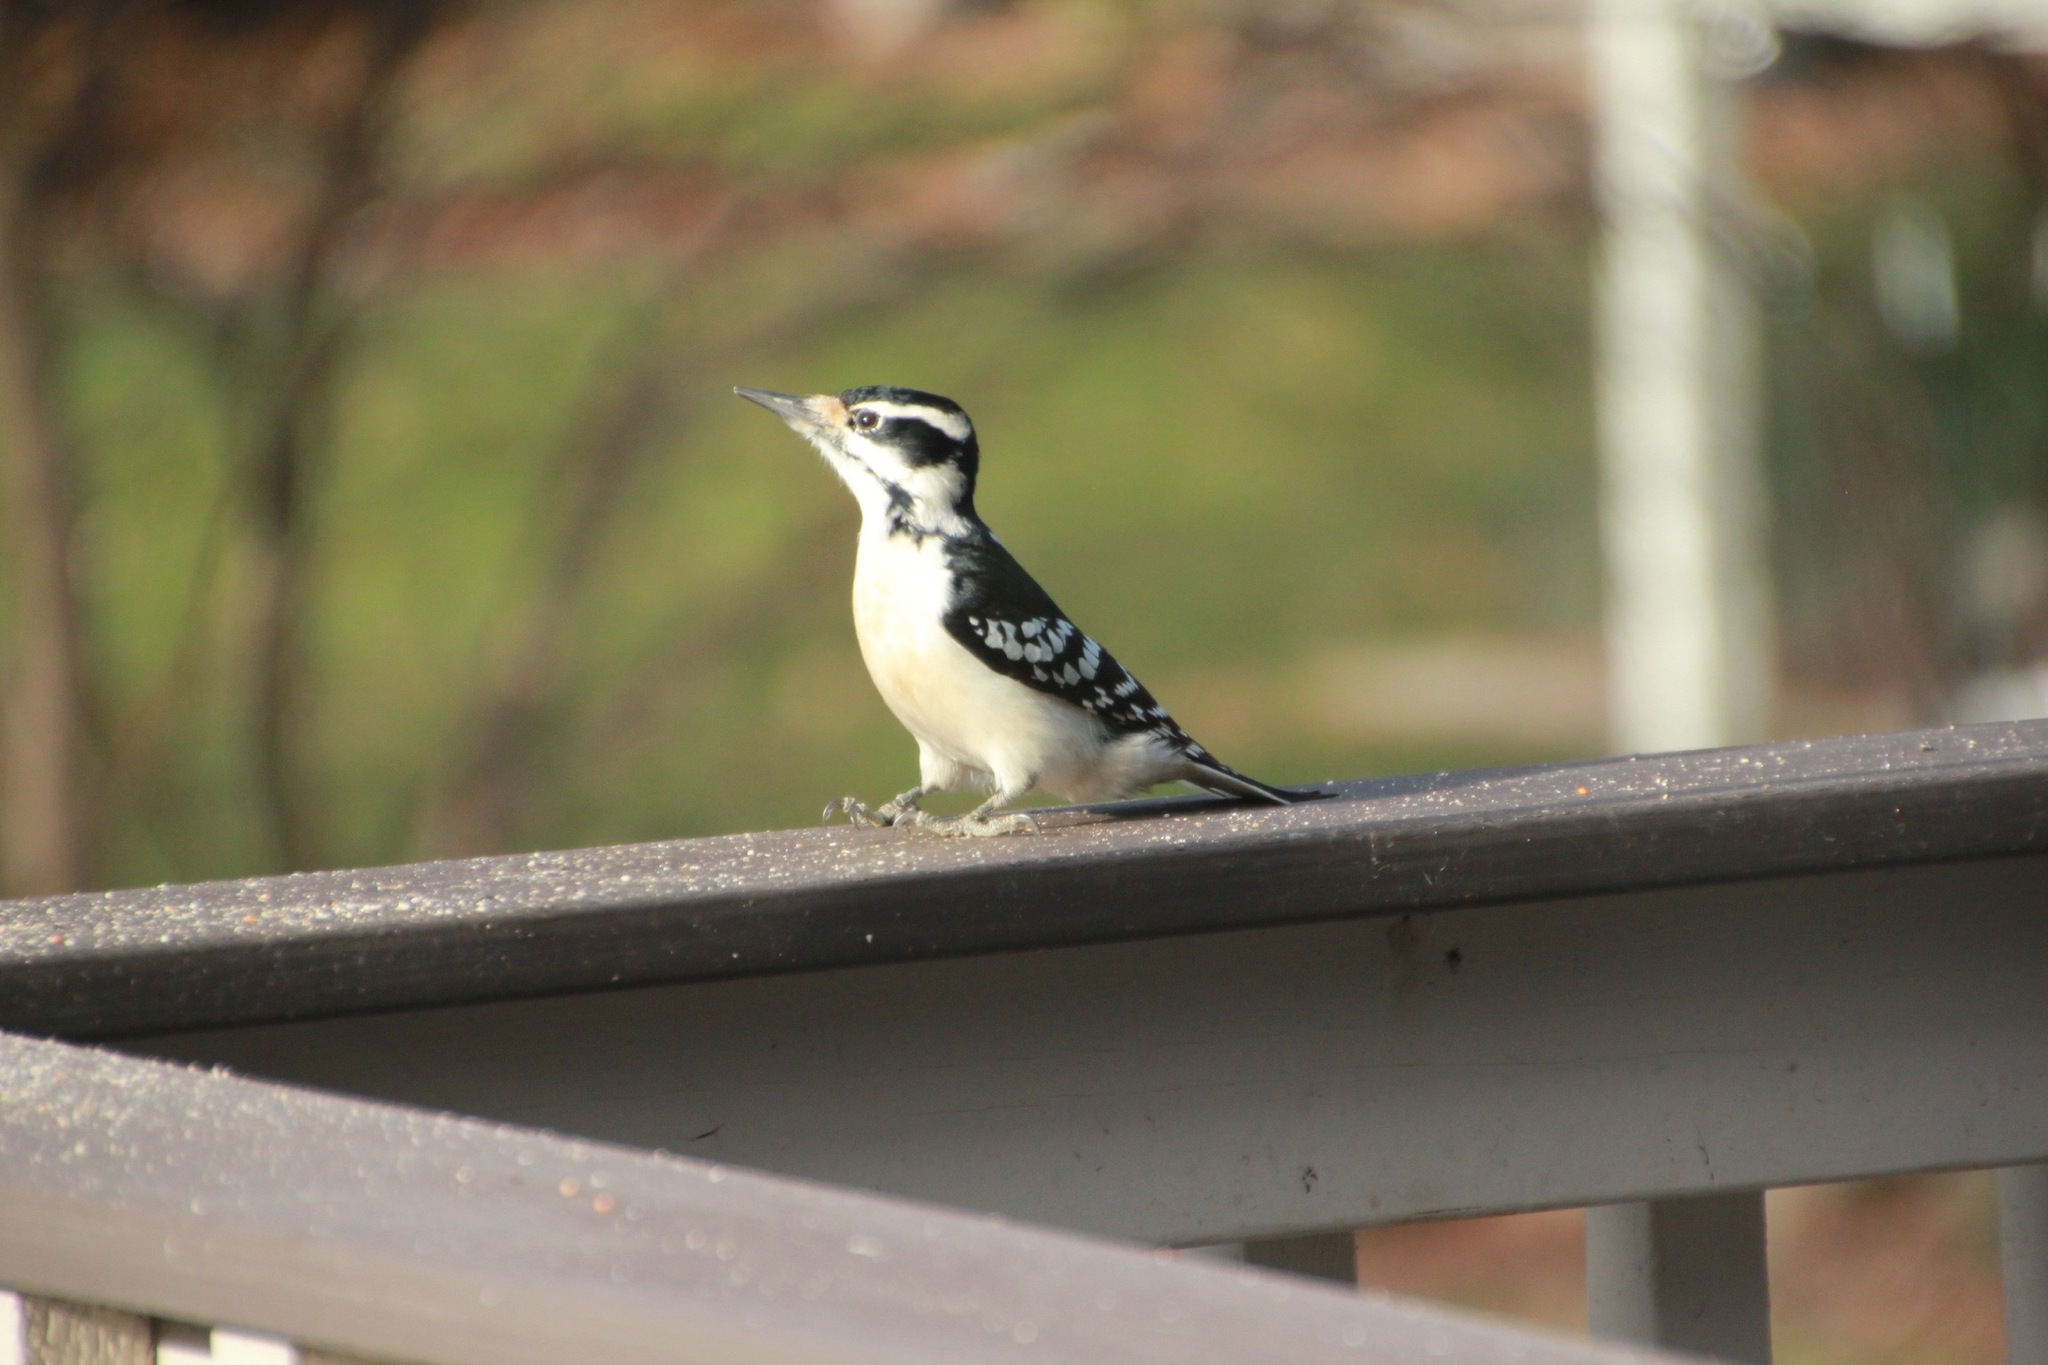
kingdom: Animalia
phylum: Chordata
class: Aves
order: Piciformes
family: Picidae
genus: Leuconotopicus
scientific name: Leuconotopicus villosus
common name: Hairy woodpecker
